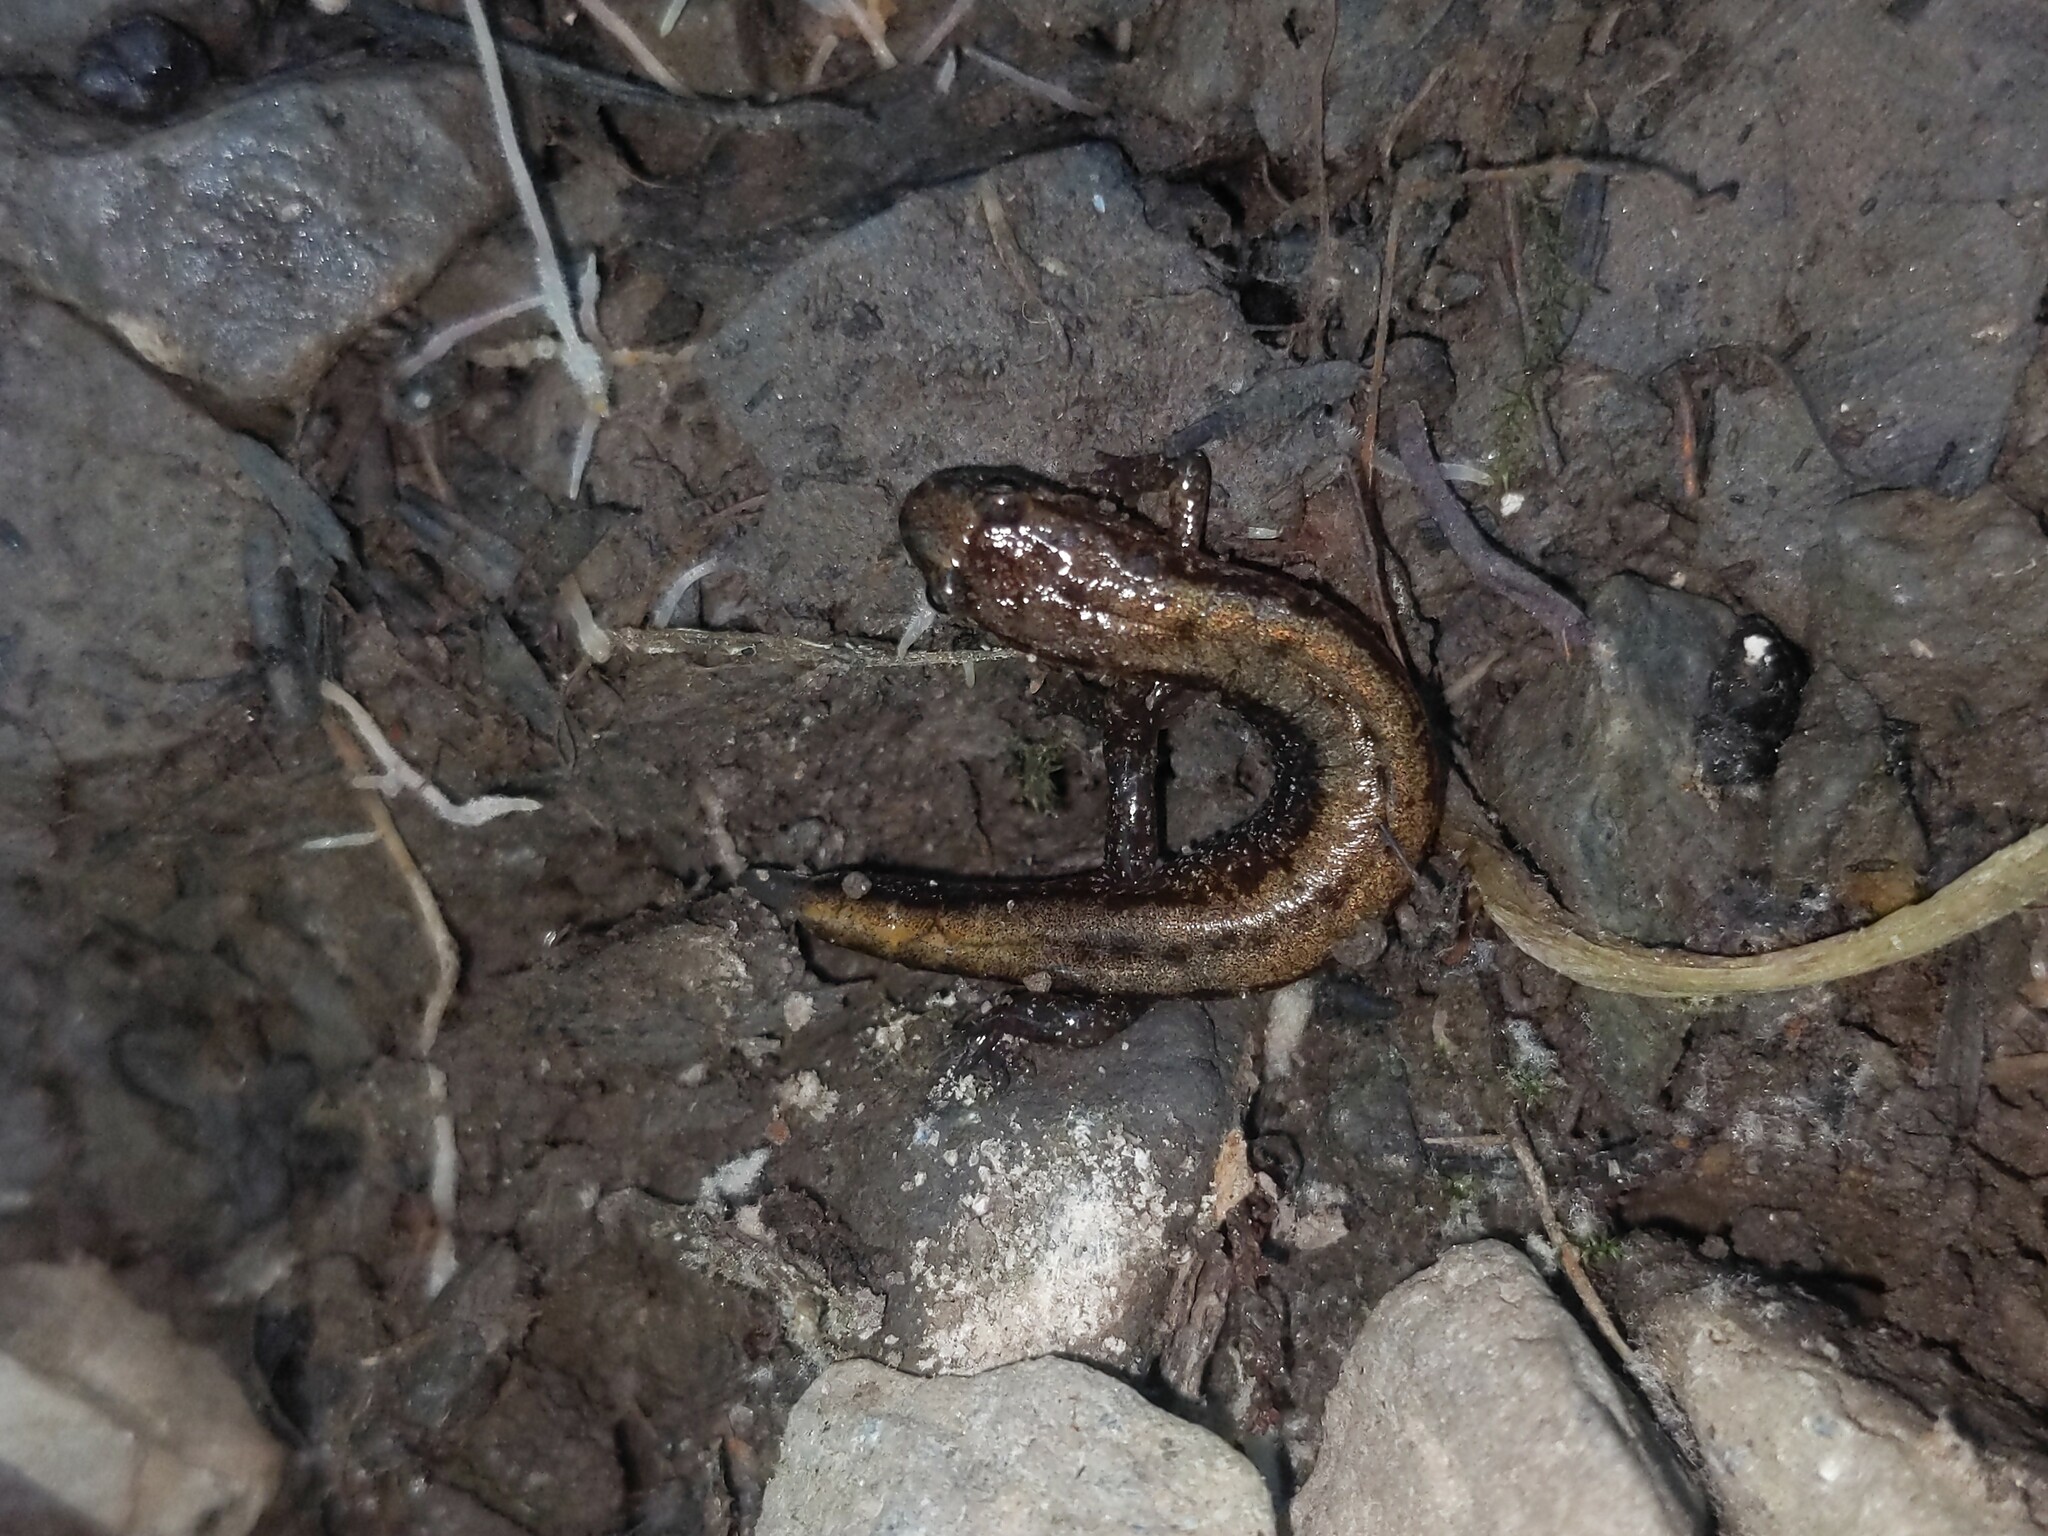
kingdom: Animalia
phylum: Chordata
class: Amphibia
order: Caudata
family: Plethodontidae
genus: Desmognathus
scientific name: Desmognathus ochrophaeus
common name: Allegheny mountain dusky salamander
